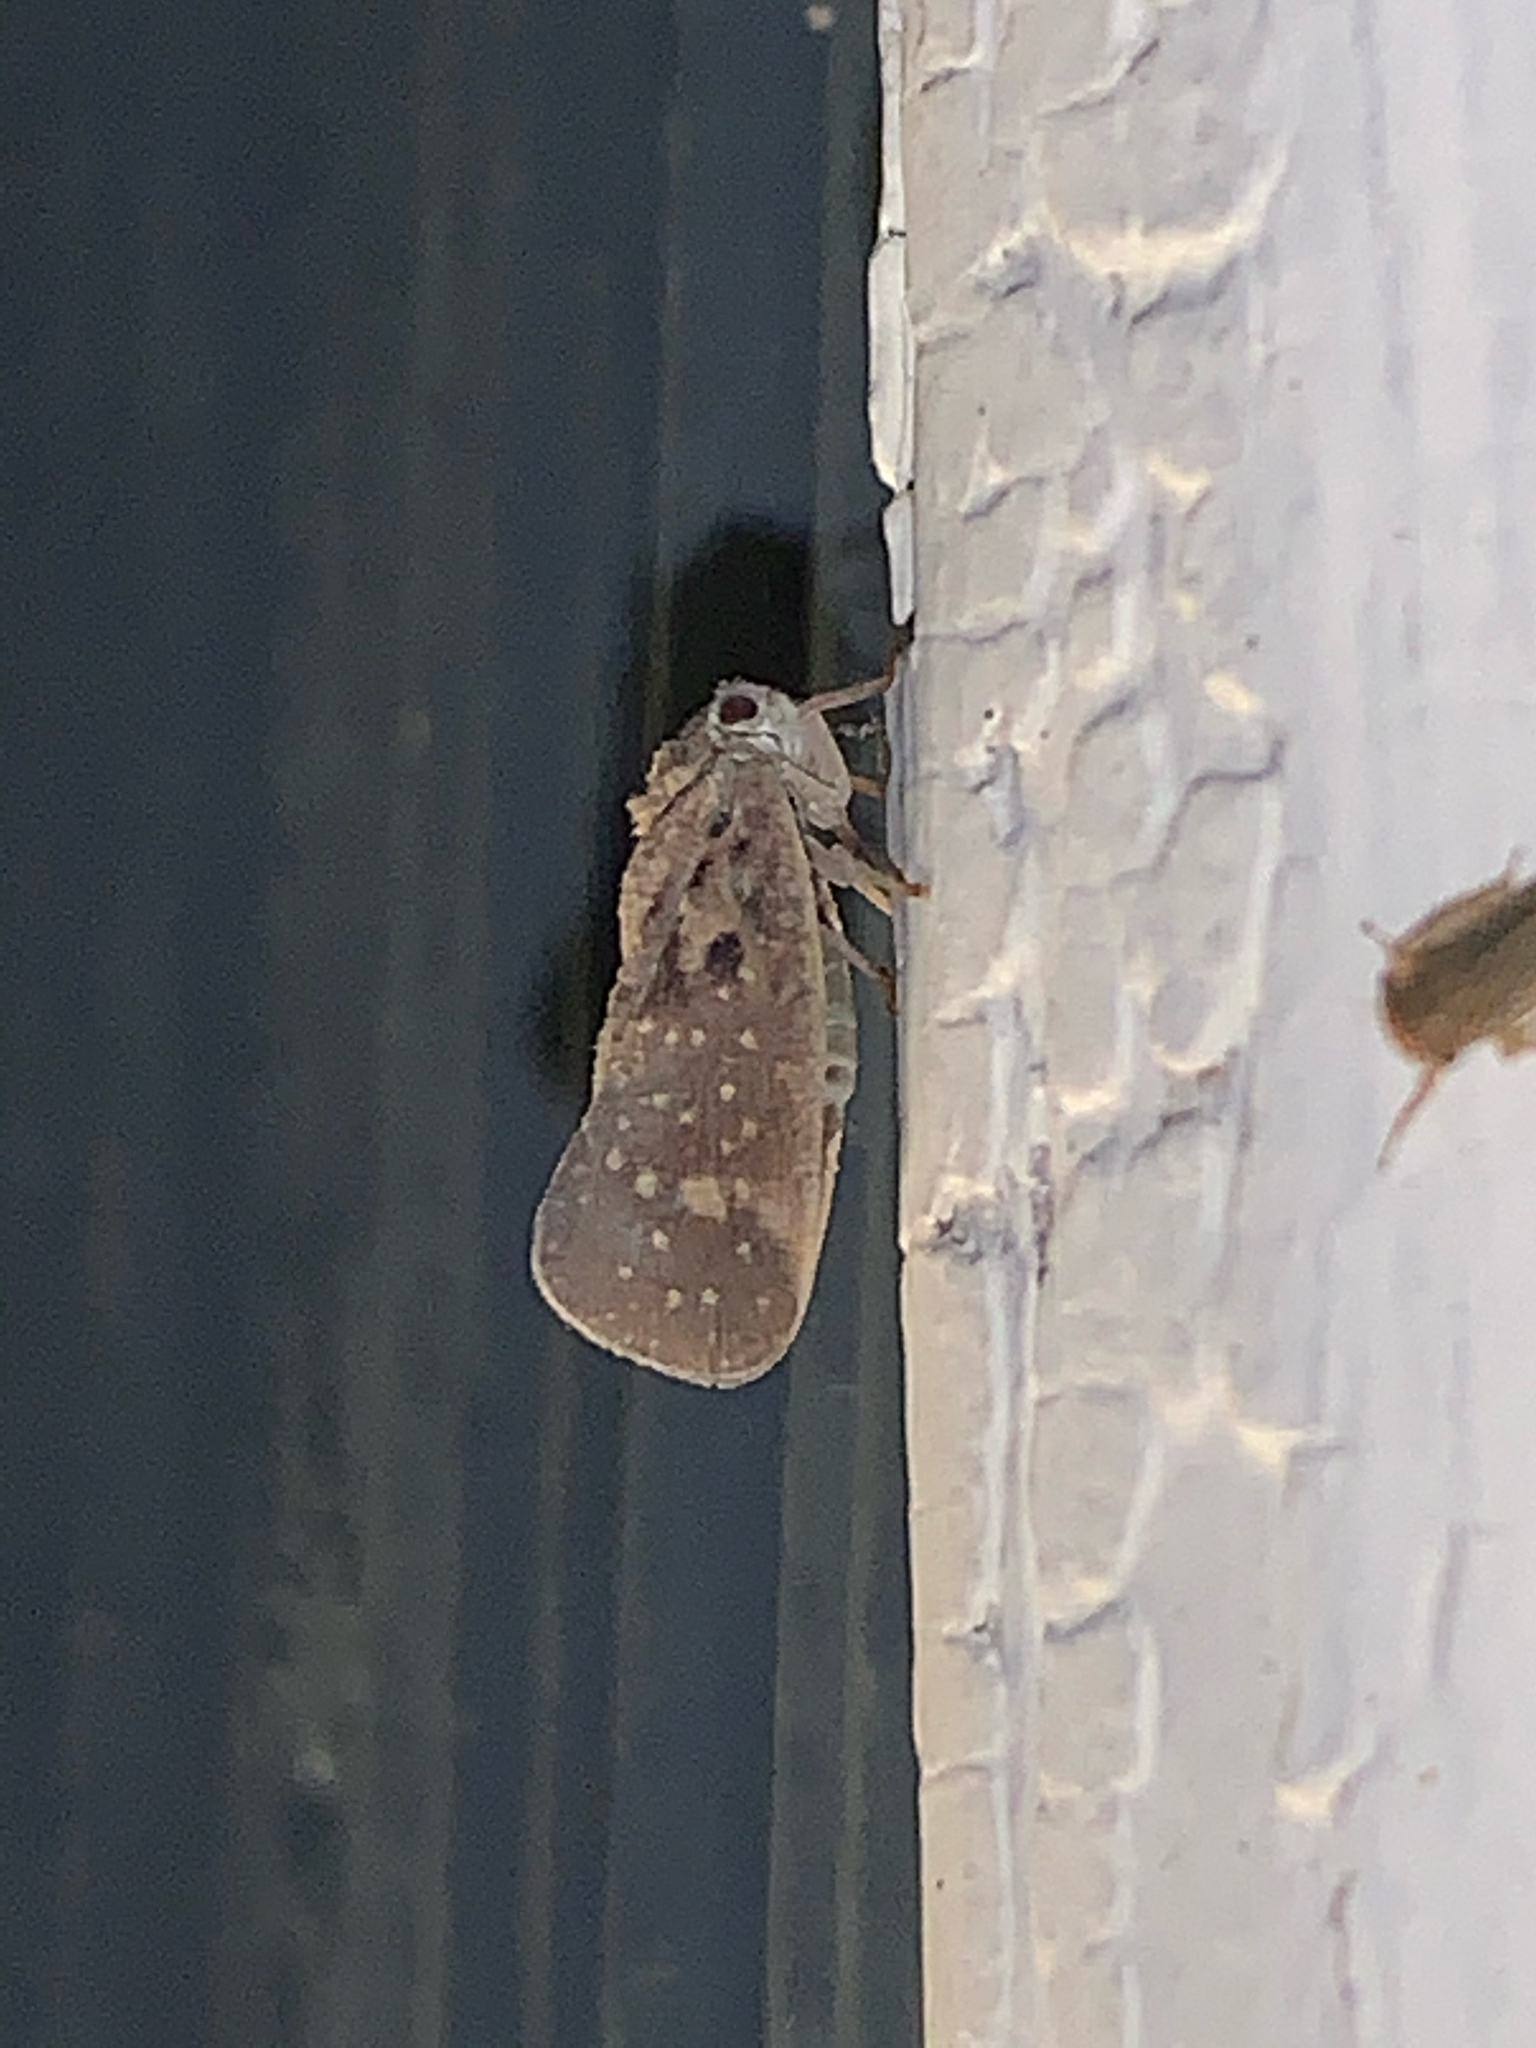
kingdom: Animalia
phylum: Arthropoda
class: Insecta
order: Hemiptera
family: Flatidae
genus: Metcalfa
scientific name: Metcalfa pruinosa
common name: Citrus flatid planthopper
